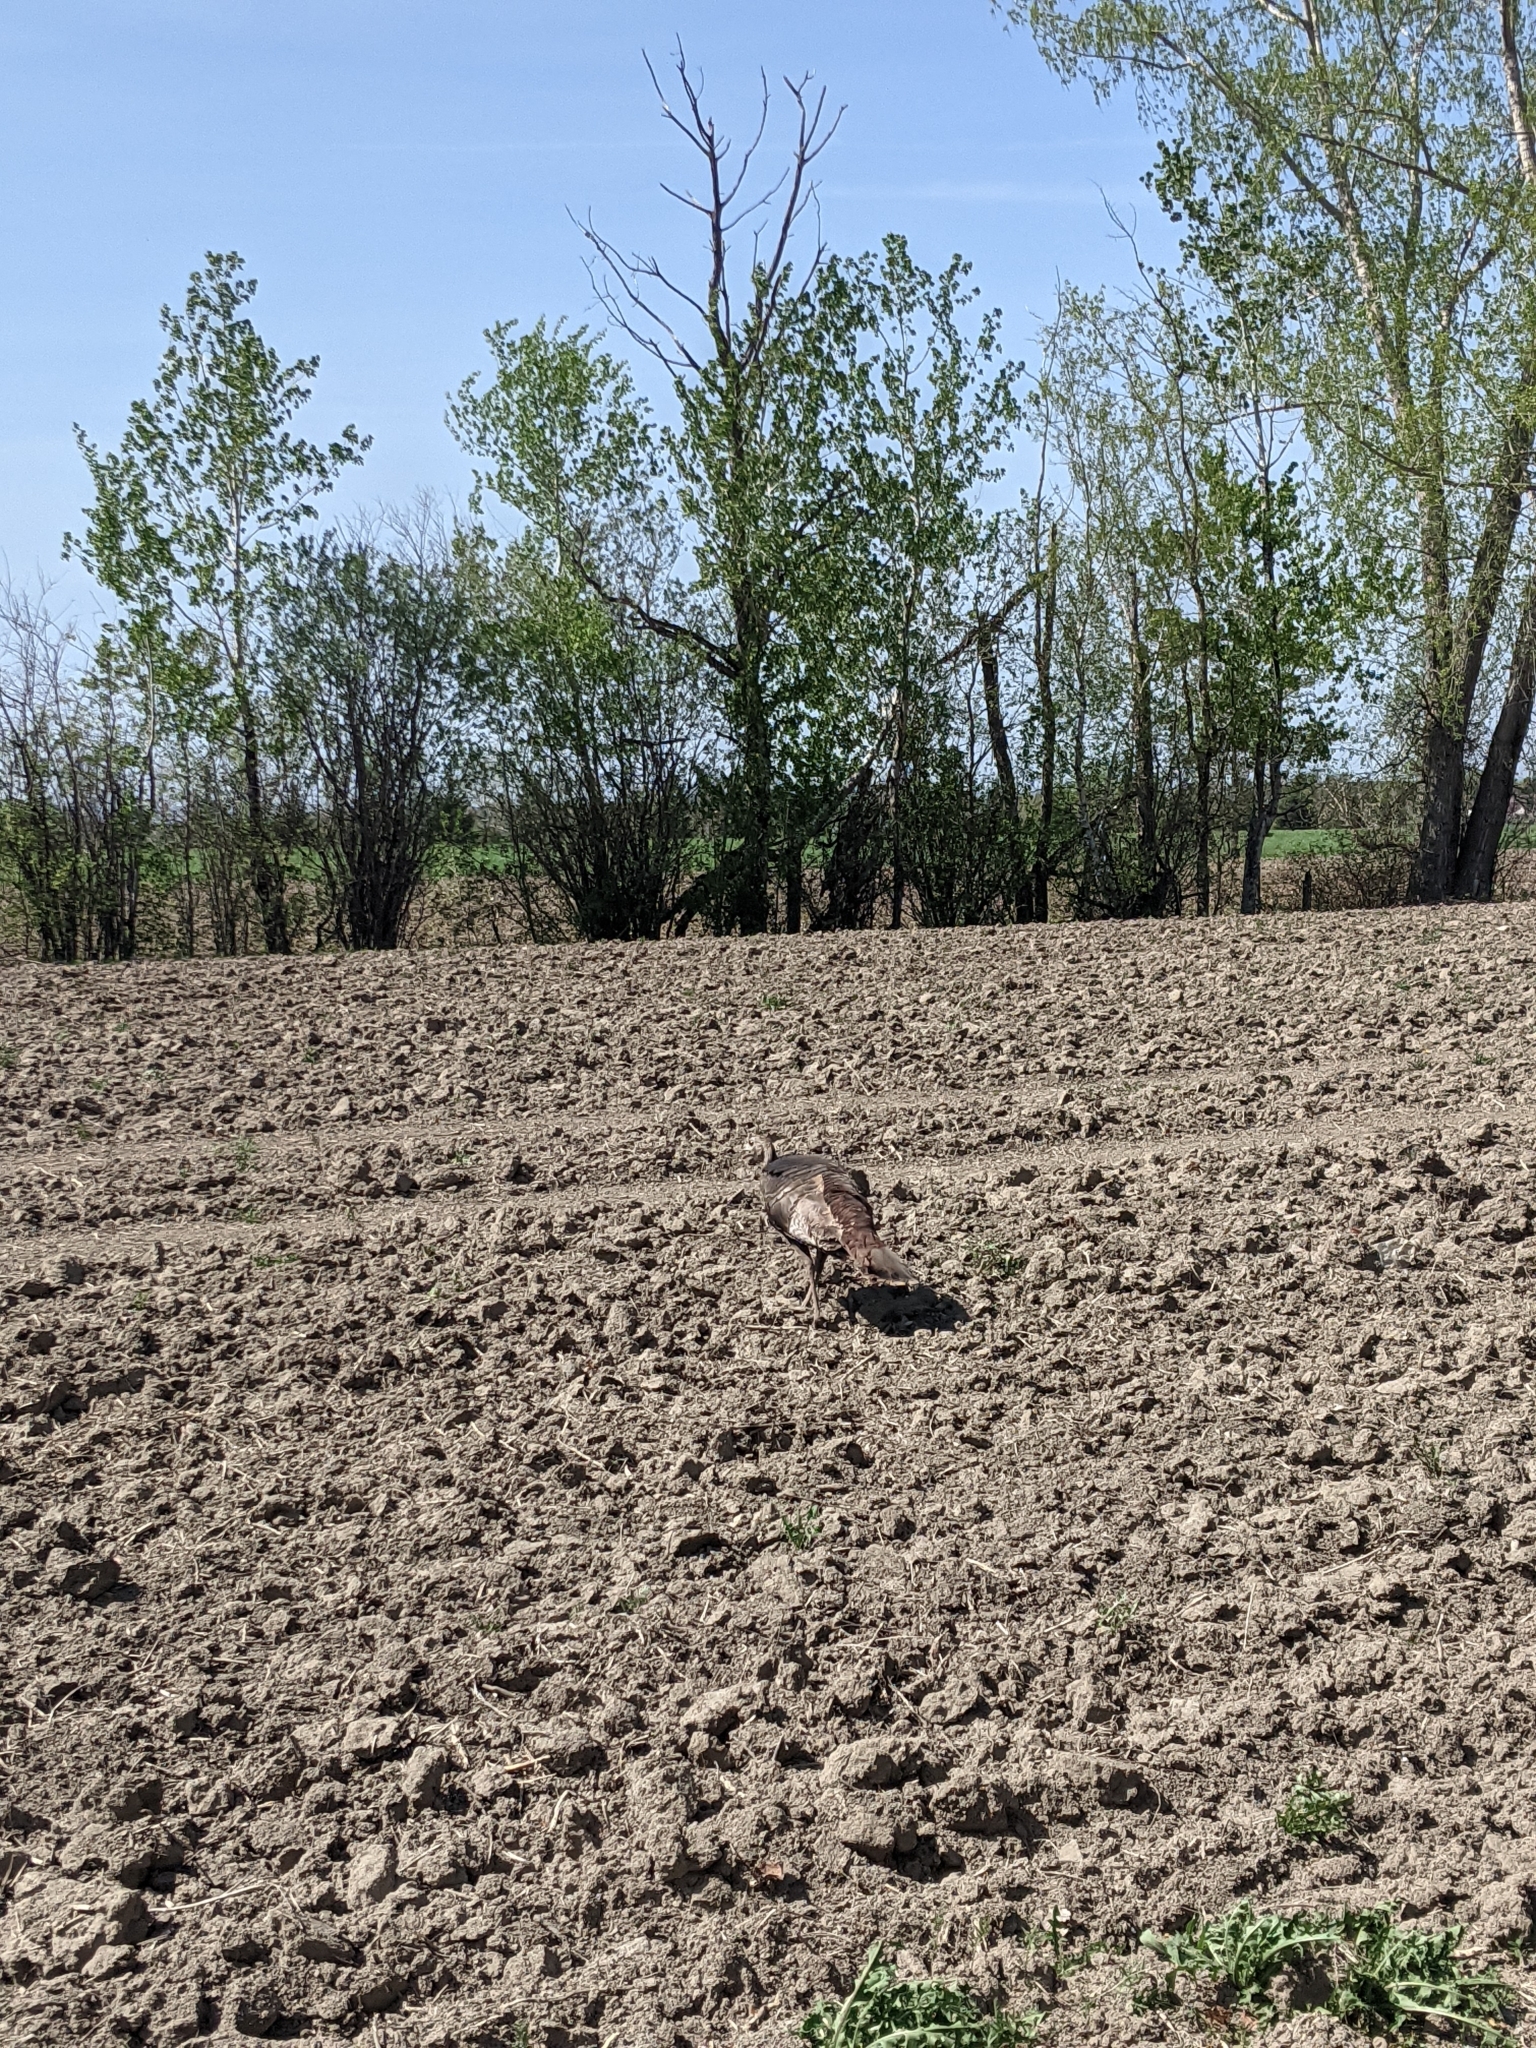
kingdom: Animalia
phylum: Chordata
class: Aves
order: Galliformes
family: Phasianidae
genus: Meleagris
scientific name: Meleagris gallopavo
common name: Wild turkey
